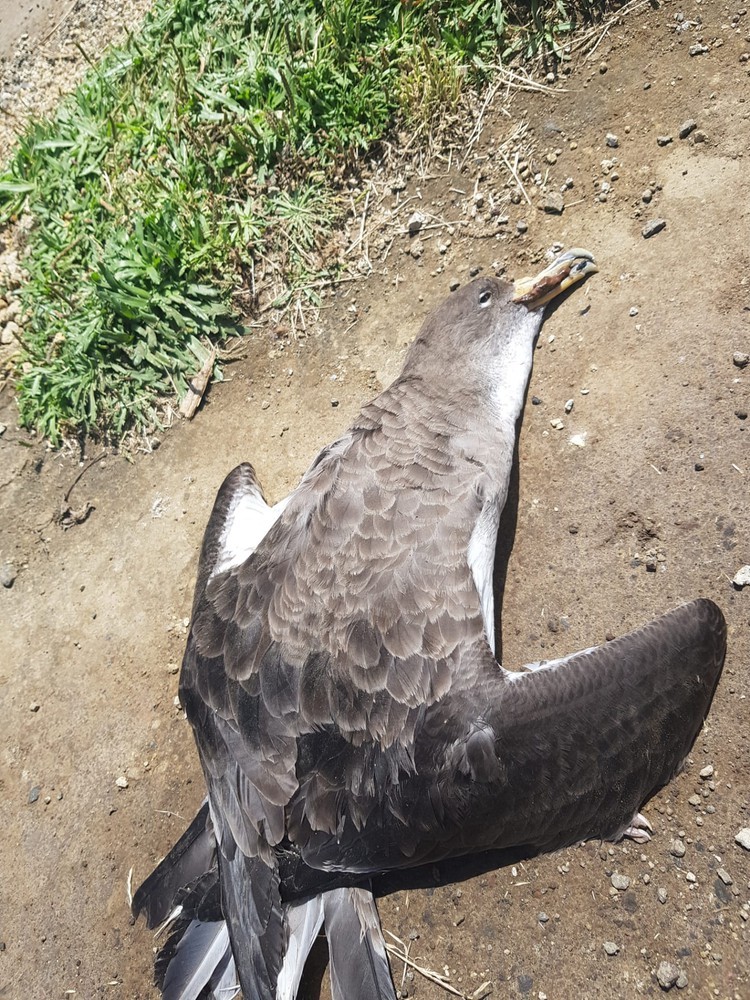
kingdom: Animalia
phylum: Chordata
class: Aves
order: Procellariiformes
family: Procellariidae
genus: Calonectris
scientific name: Calonectris diomedea
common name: Cory's shearwater
